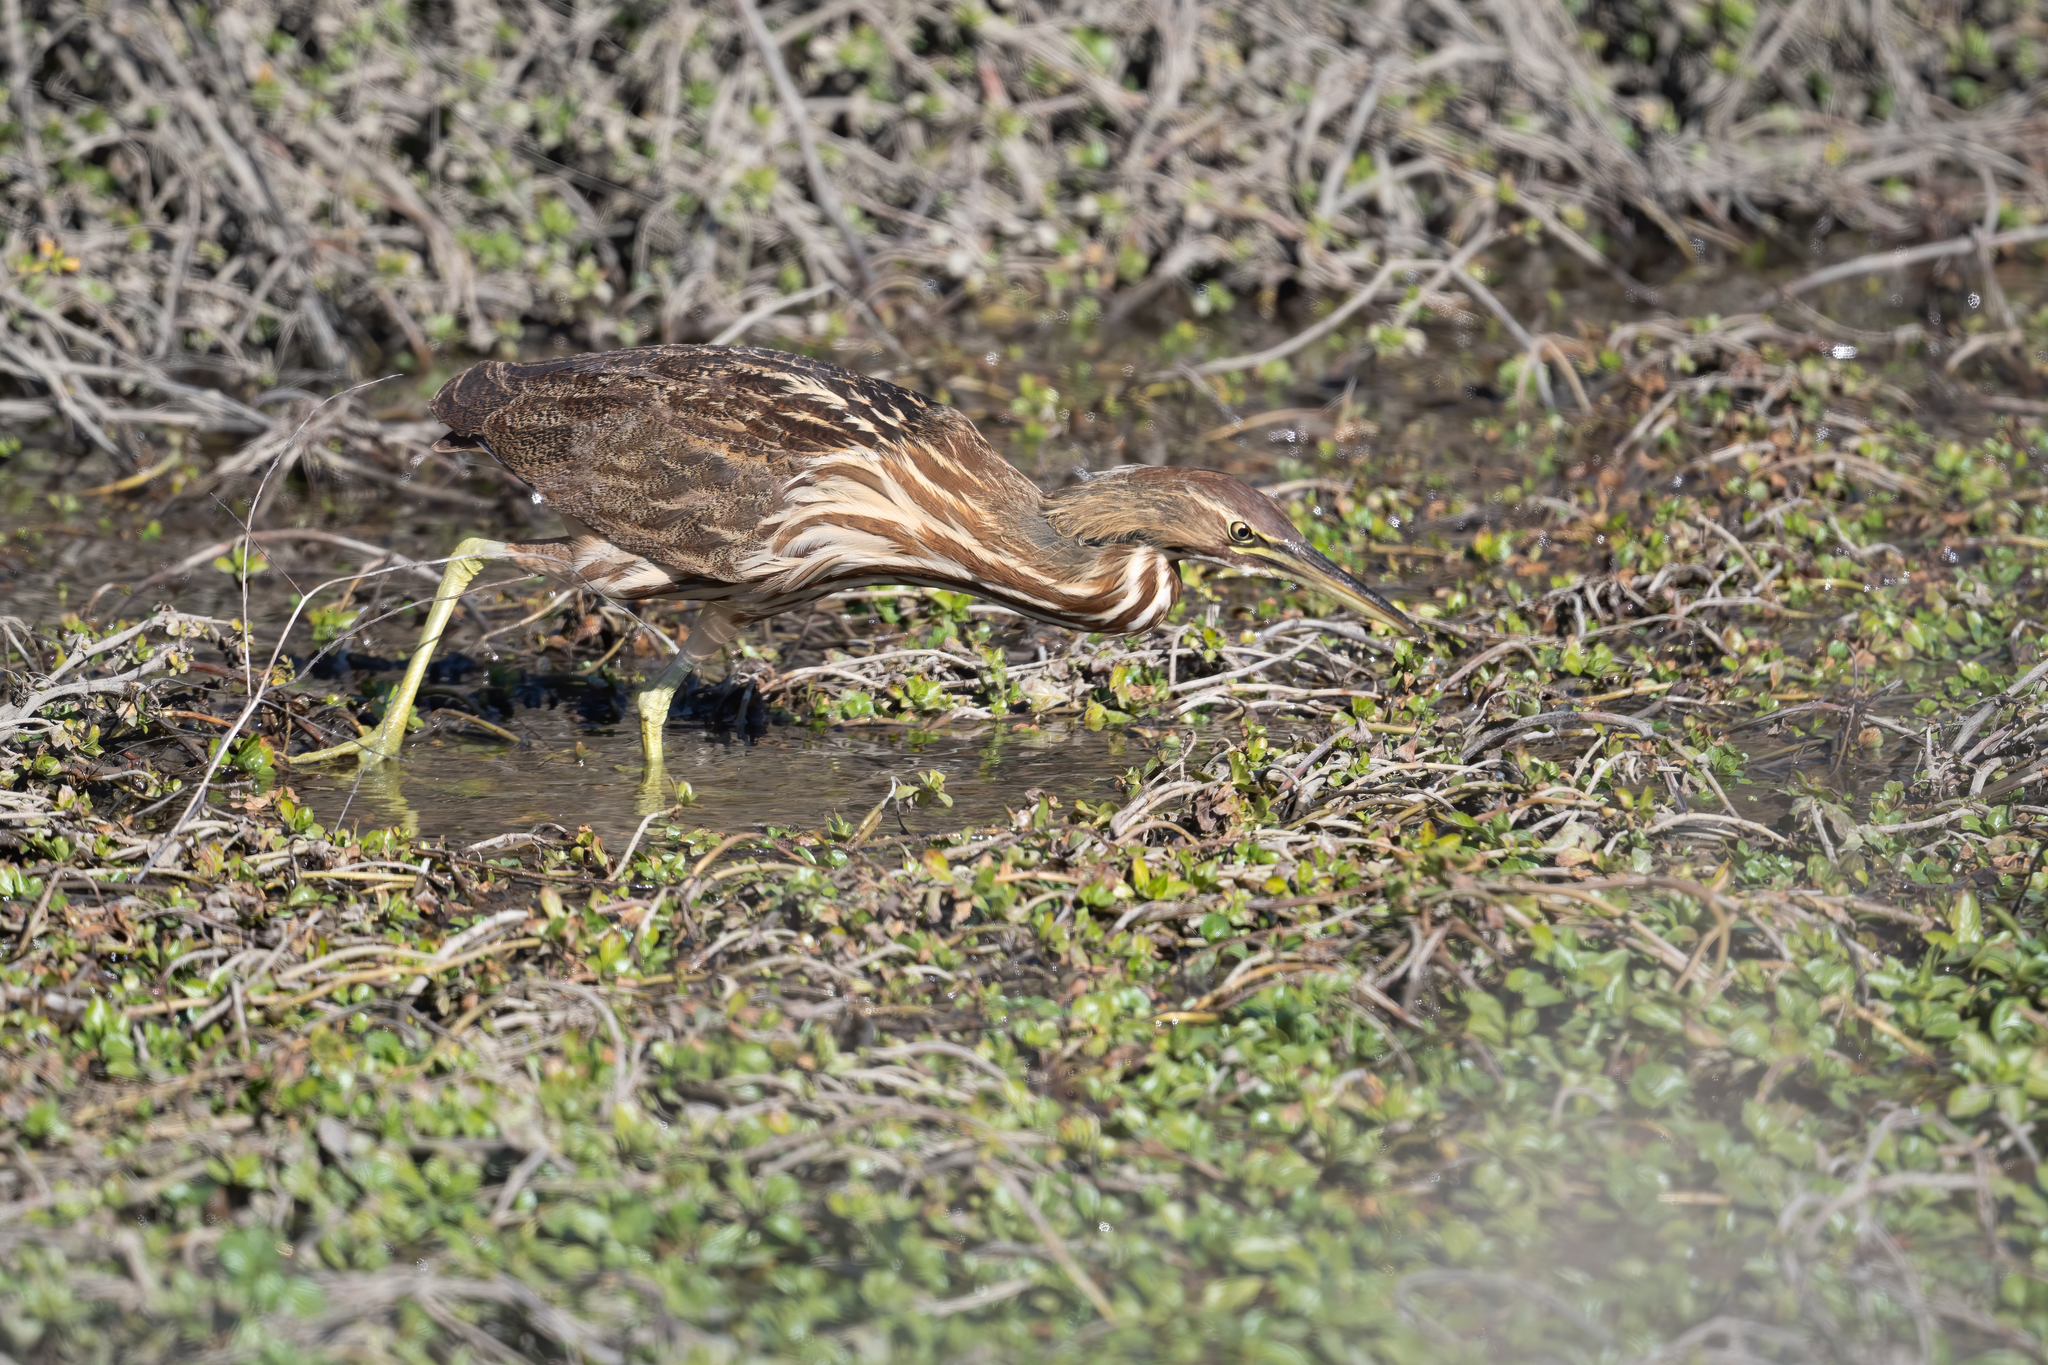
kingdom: Animalia
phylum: Chordata
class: Aves
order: Pelecaniformes
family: Ardeidae
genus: Botaurus
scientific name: Botaurus lentiginosus
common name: American bittern
